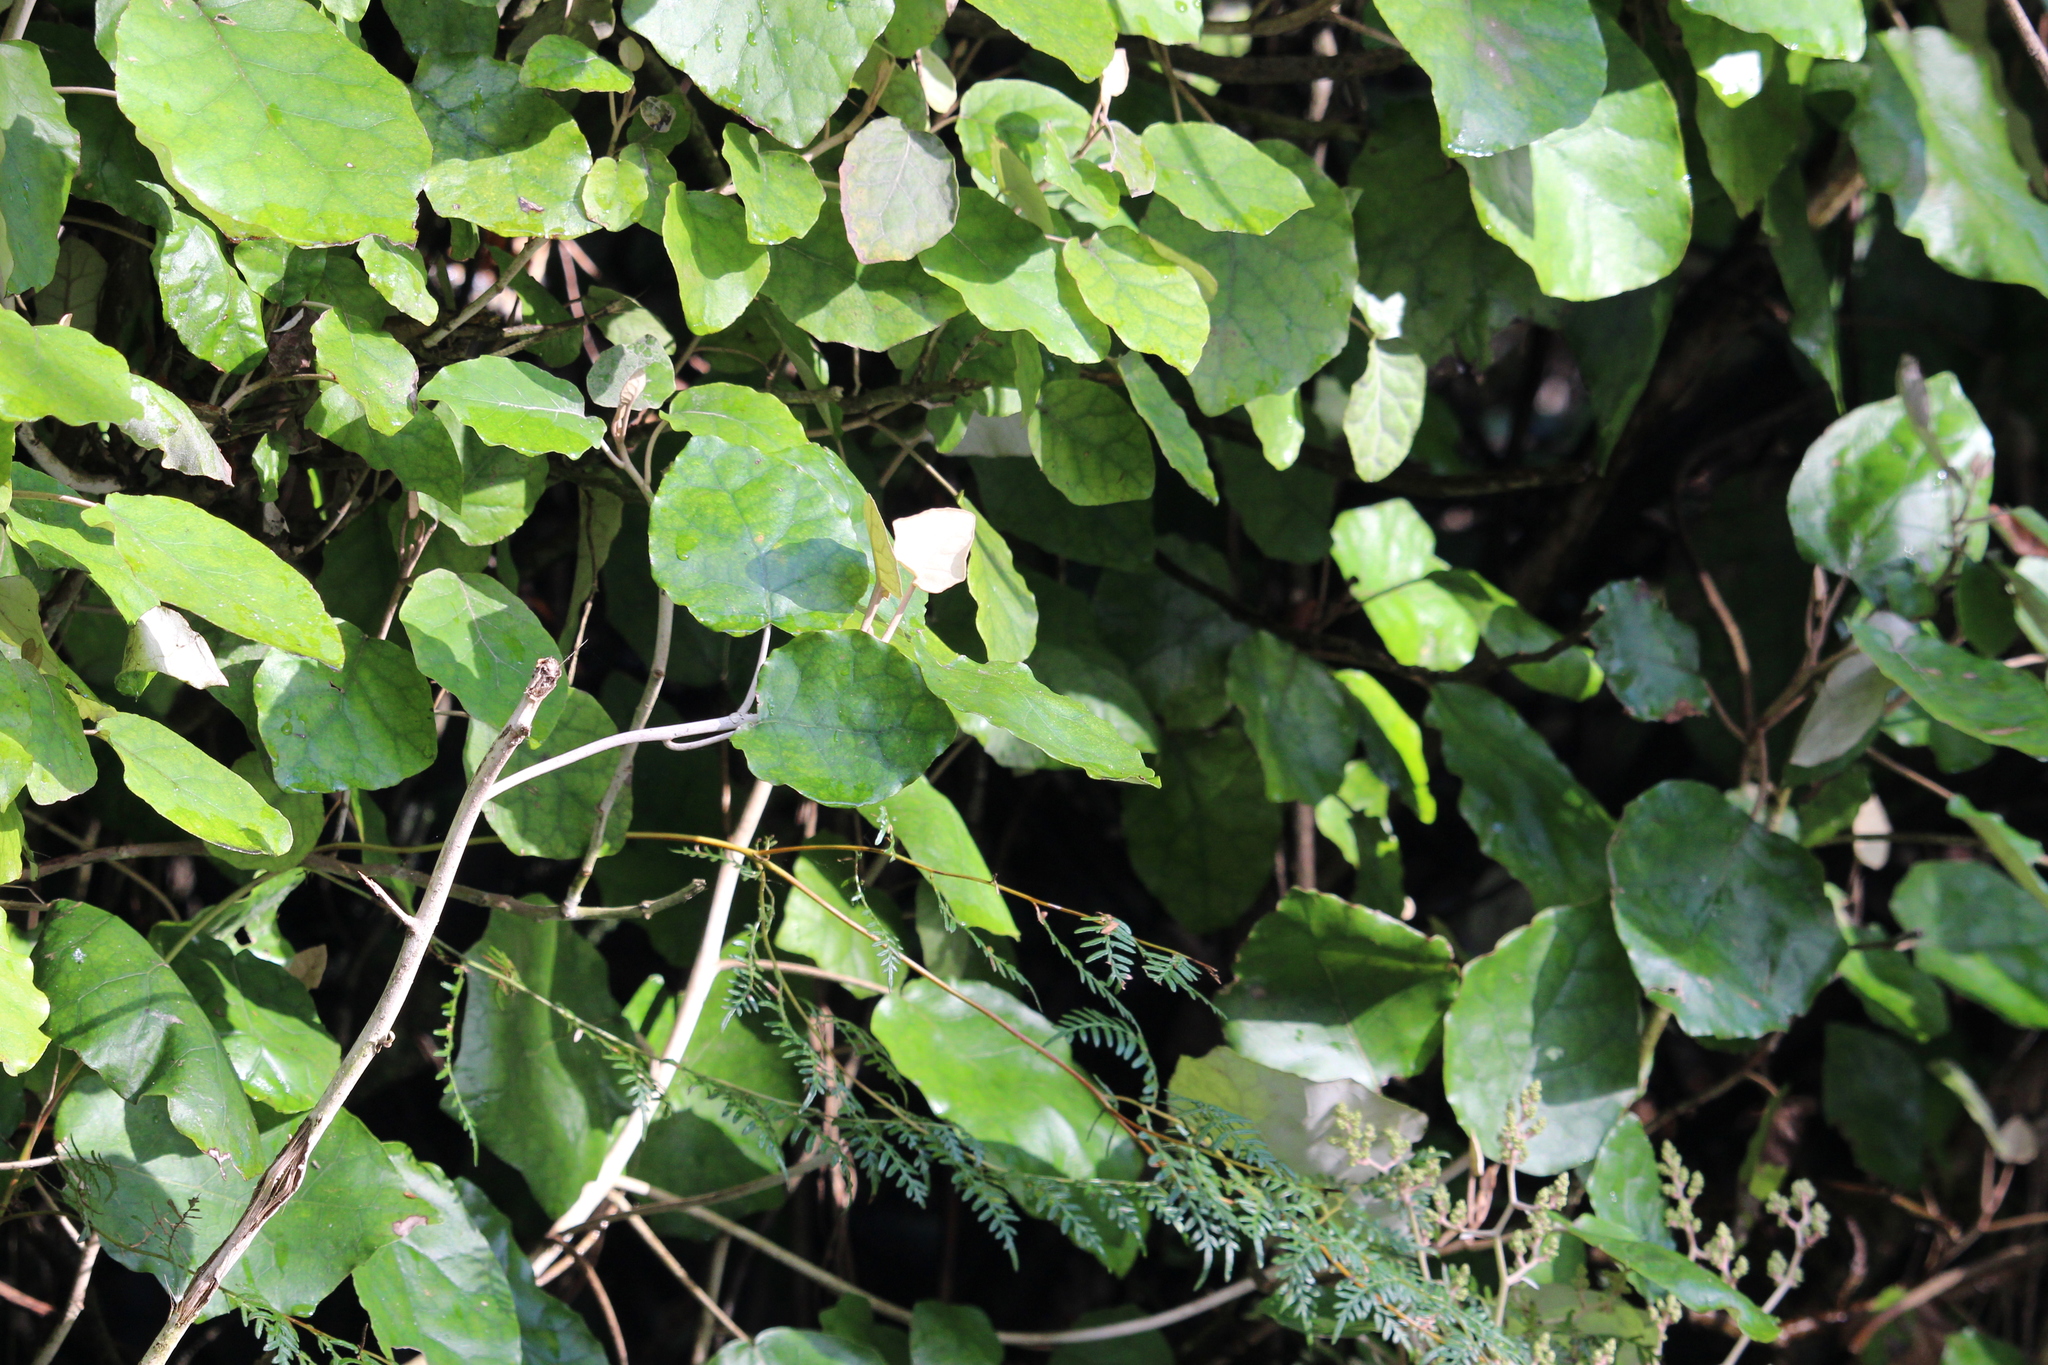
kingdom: Plantae
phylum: Tracheophyta
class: Magnoliopsida
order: Asterales
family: Asteraceae
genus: Brachyglottis
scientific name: Brachyglottis repanda
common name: Hedge ragwort
